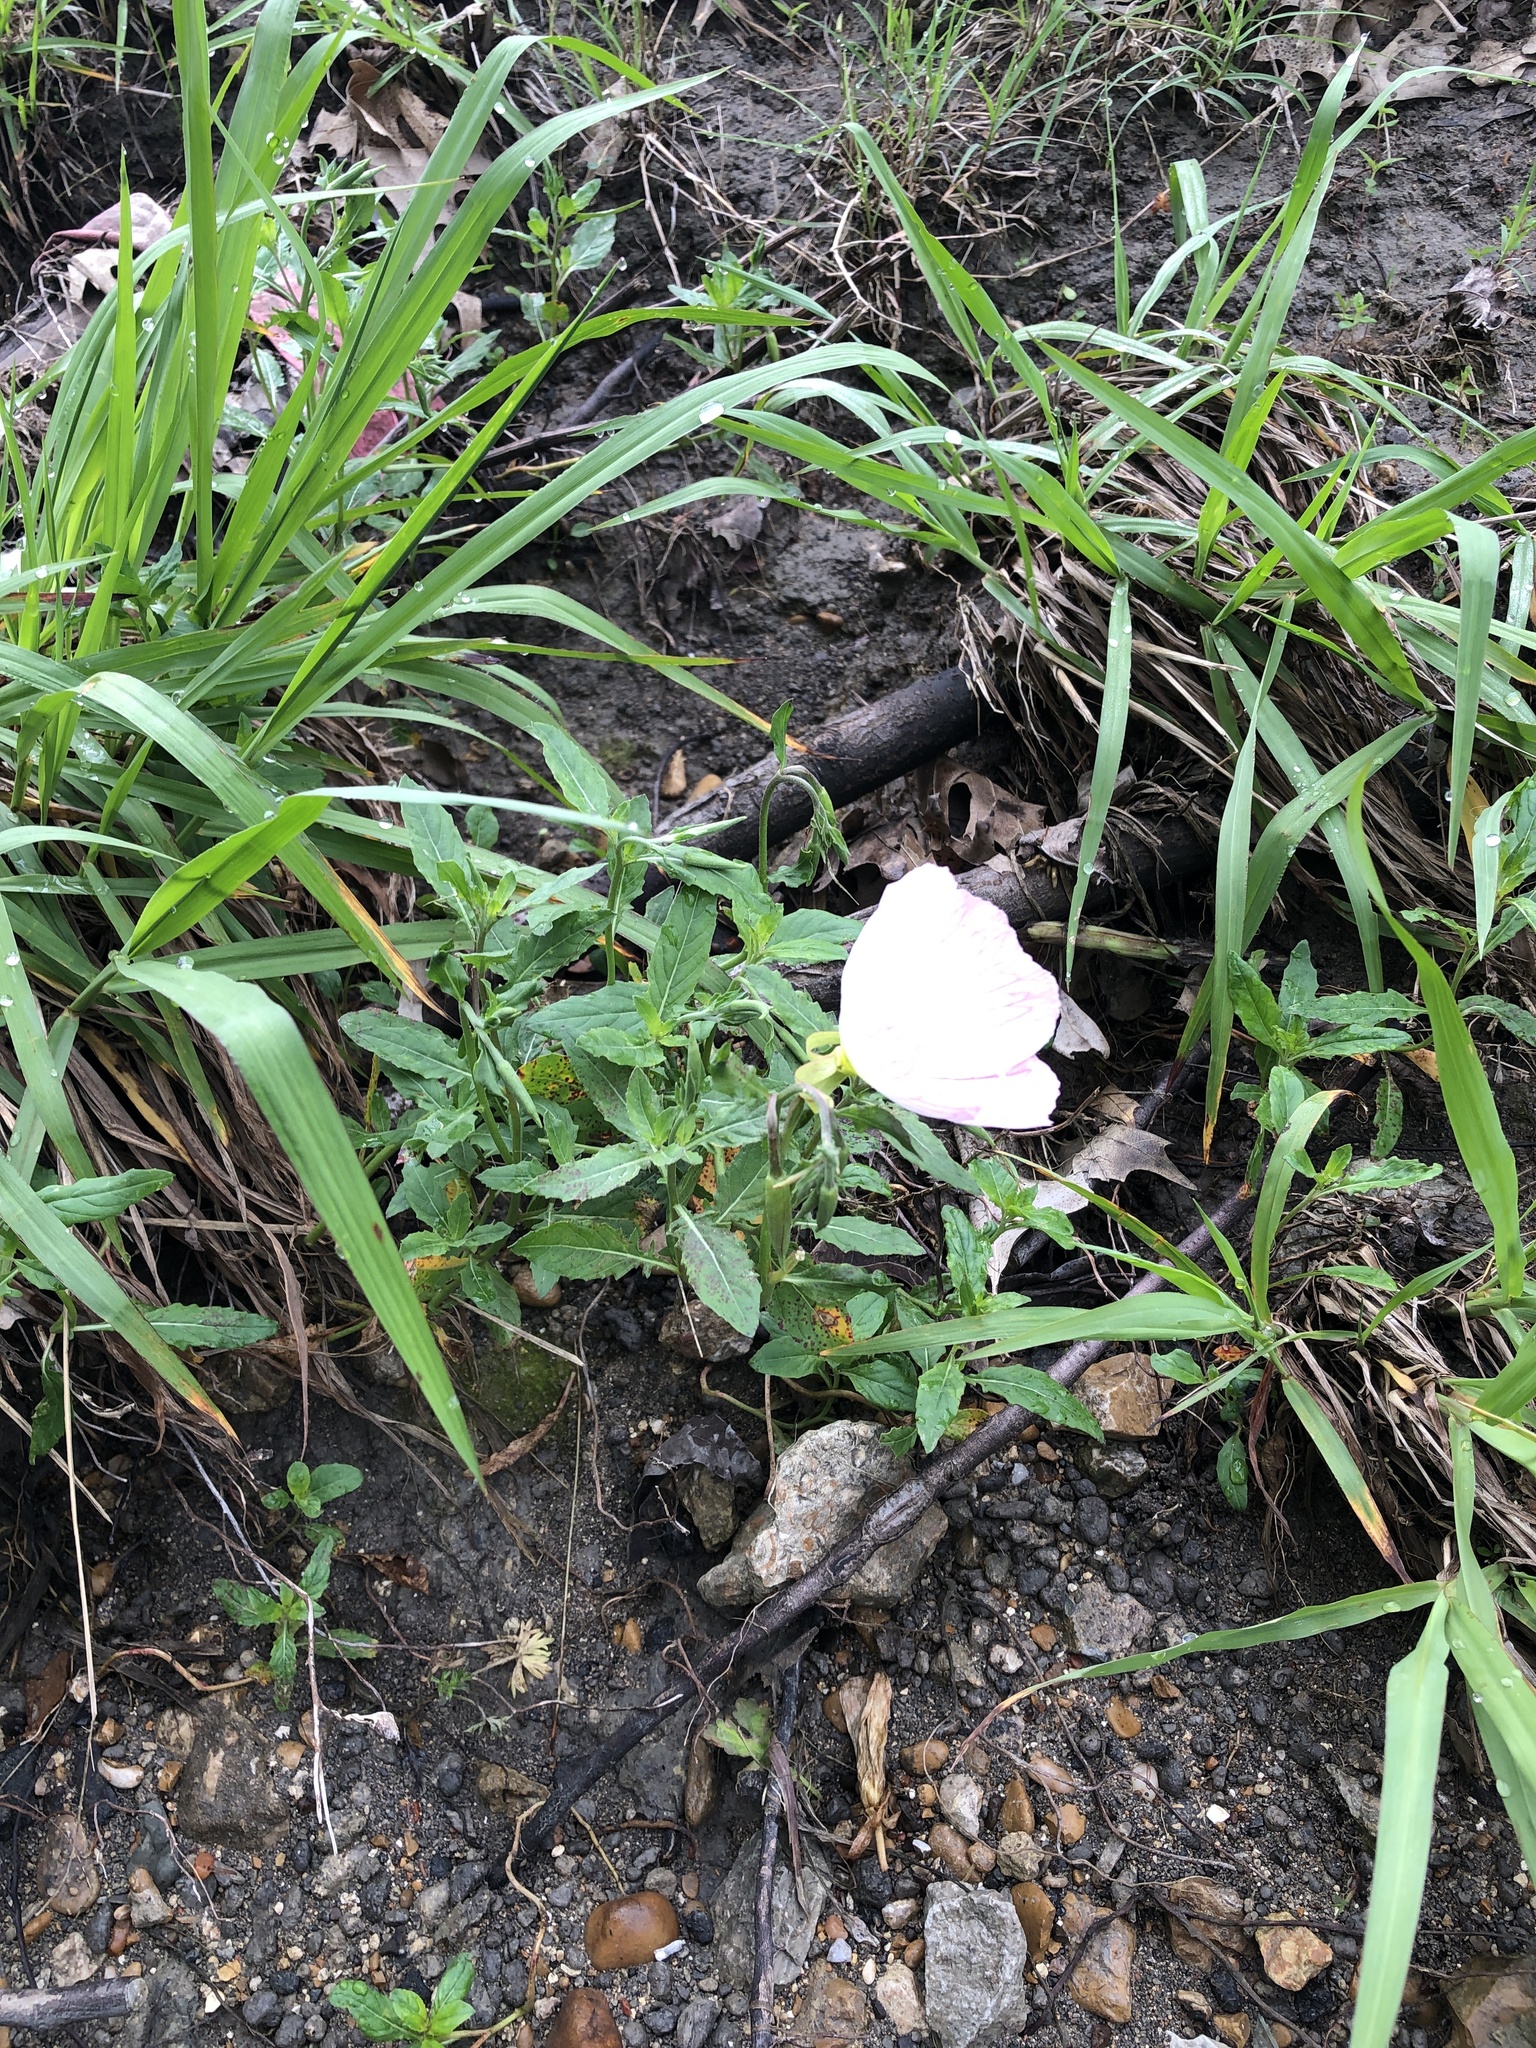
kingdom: Plantae
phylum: Tracheophyta
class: Magnoliopsida
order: Myrtales
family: Onagraceae
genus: Oenothera
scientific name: Oenothera speciosa
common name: White evening-primrose
